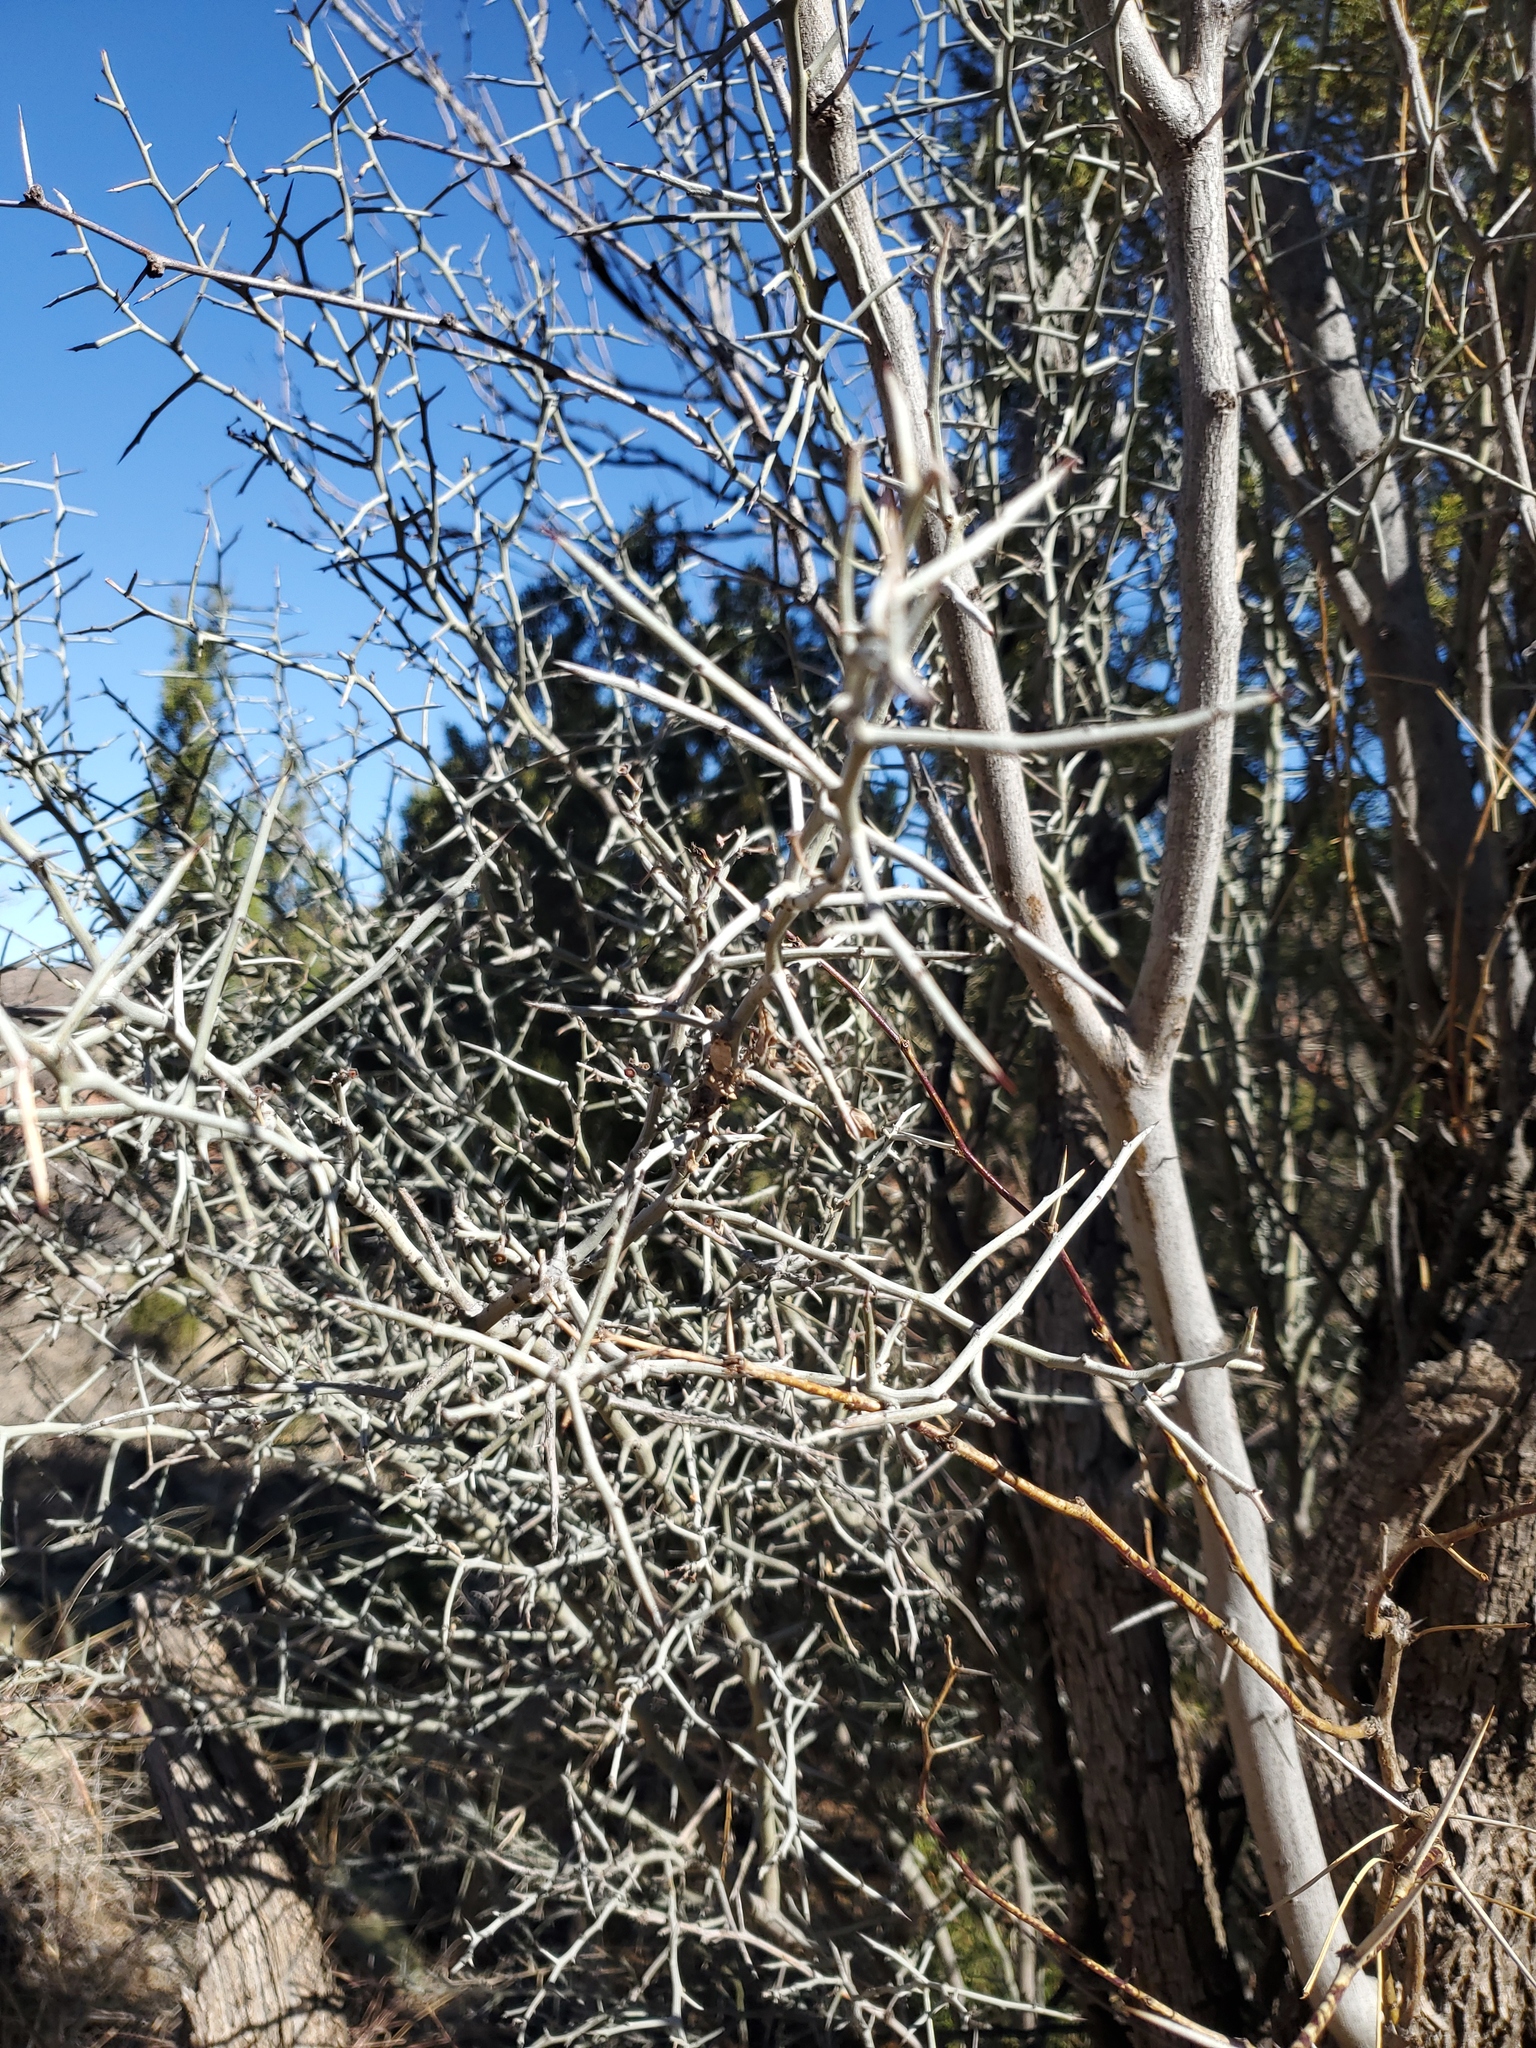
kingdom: Plantae
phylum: Tracheophyta
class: Magnoliopsida
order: Rosales
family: Rhamnaceae
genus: Sarcomphalus
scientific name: Sarcomphalus obtusifolius
